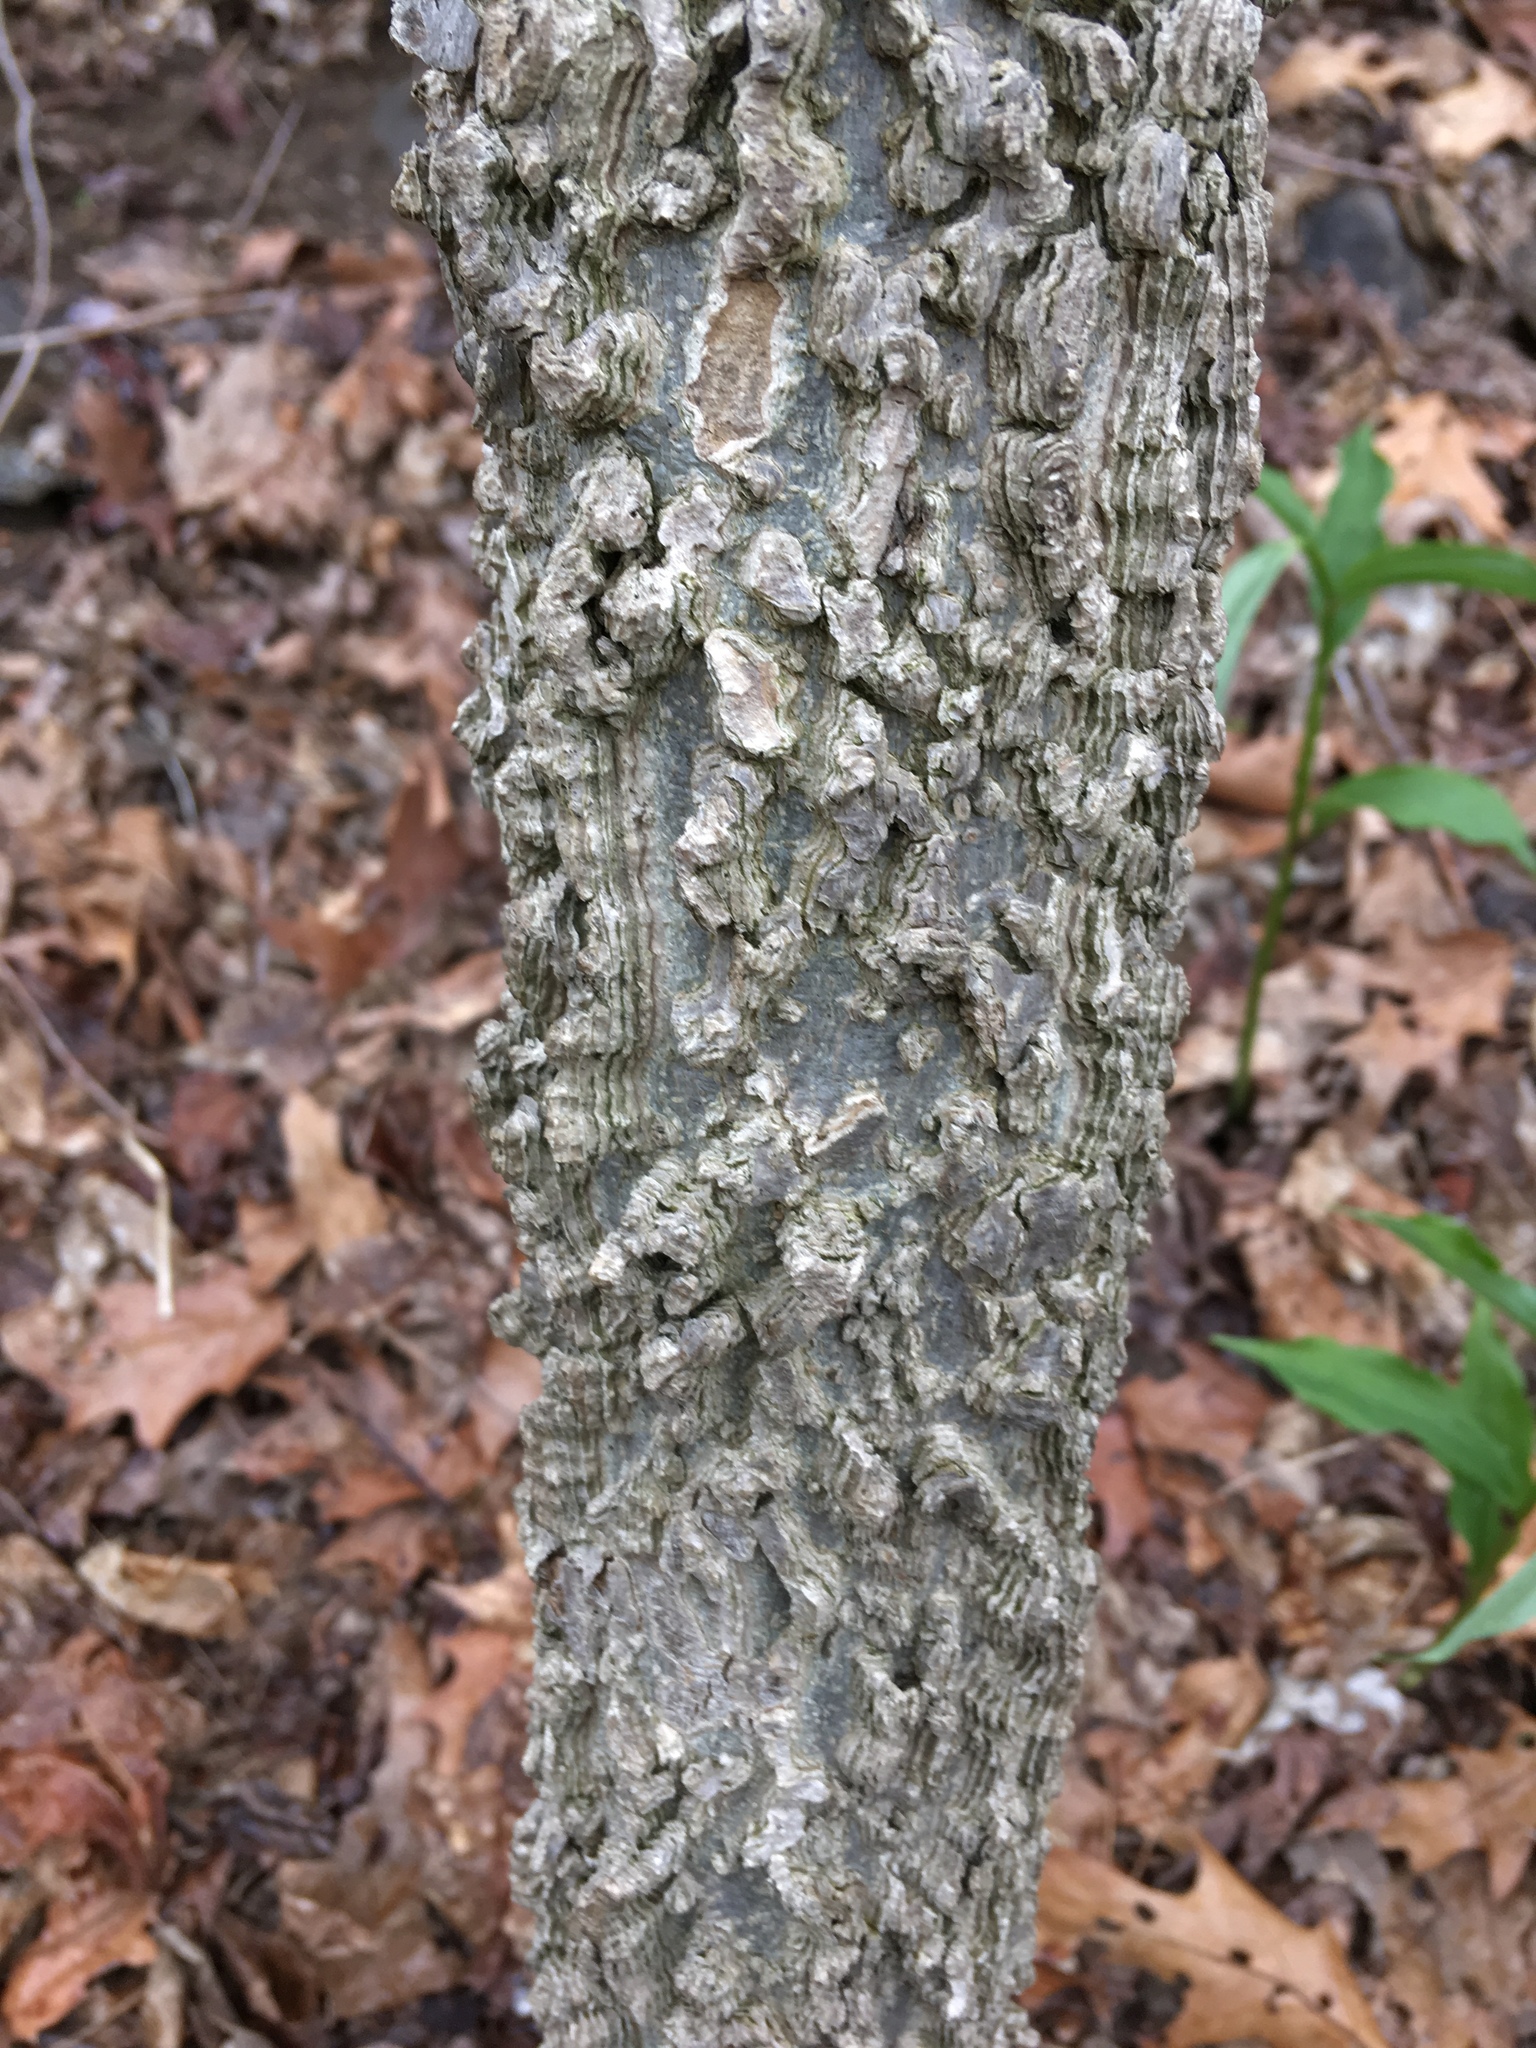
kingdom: Plantae
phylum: Tracheophyta
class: Magnoliopsida
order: Rosales
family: Cannabaceae
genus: Celtis
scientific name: Celtis occidentalis
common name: Common hackberry
